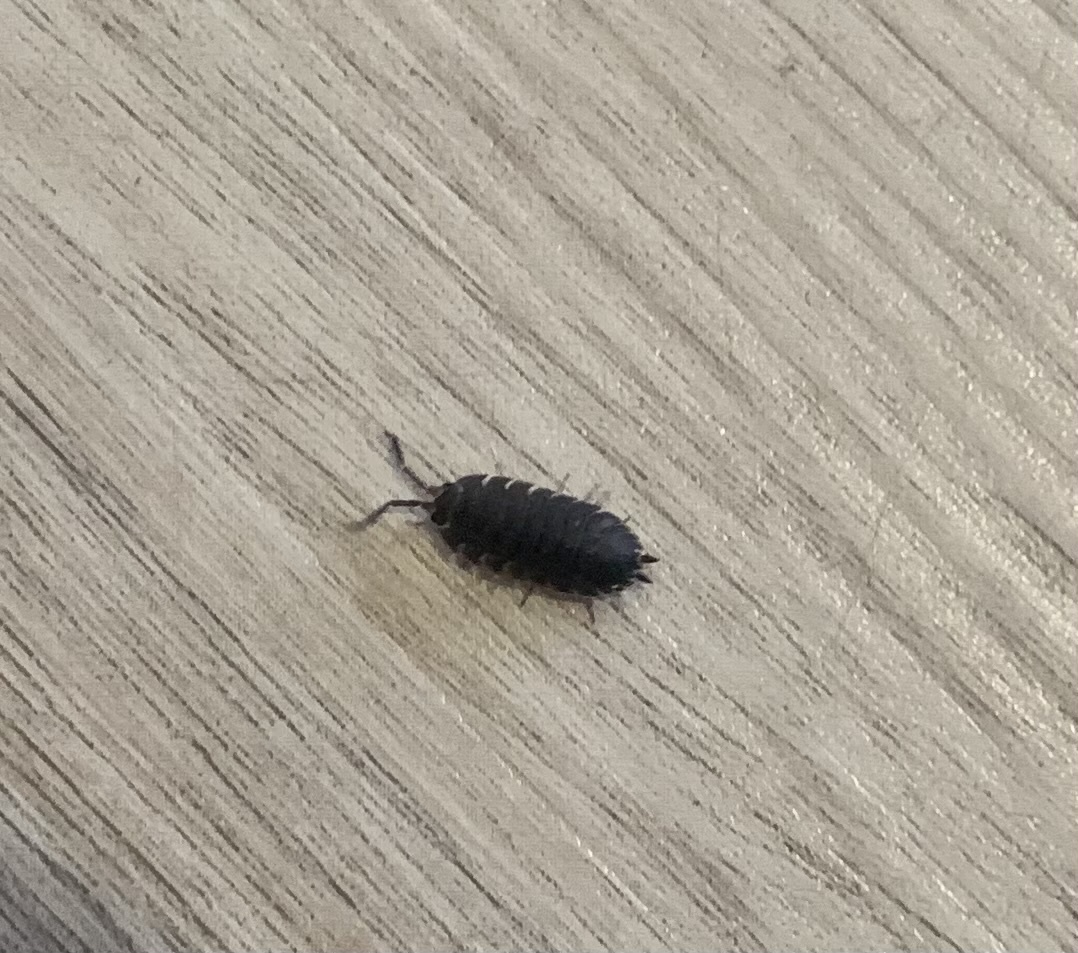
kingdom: Animalia
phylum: Arthropoda
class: Malacostraca
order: Isopoda
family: Porcellionidae
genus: Porcellio
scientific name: Porcellio scaber
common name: Common rough woodlouse
